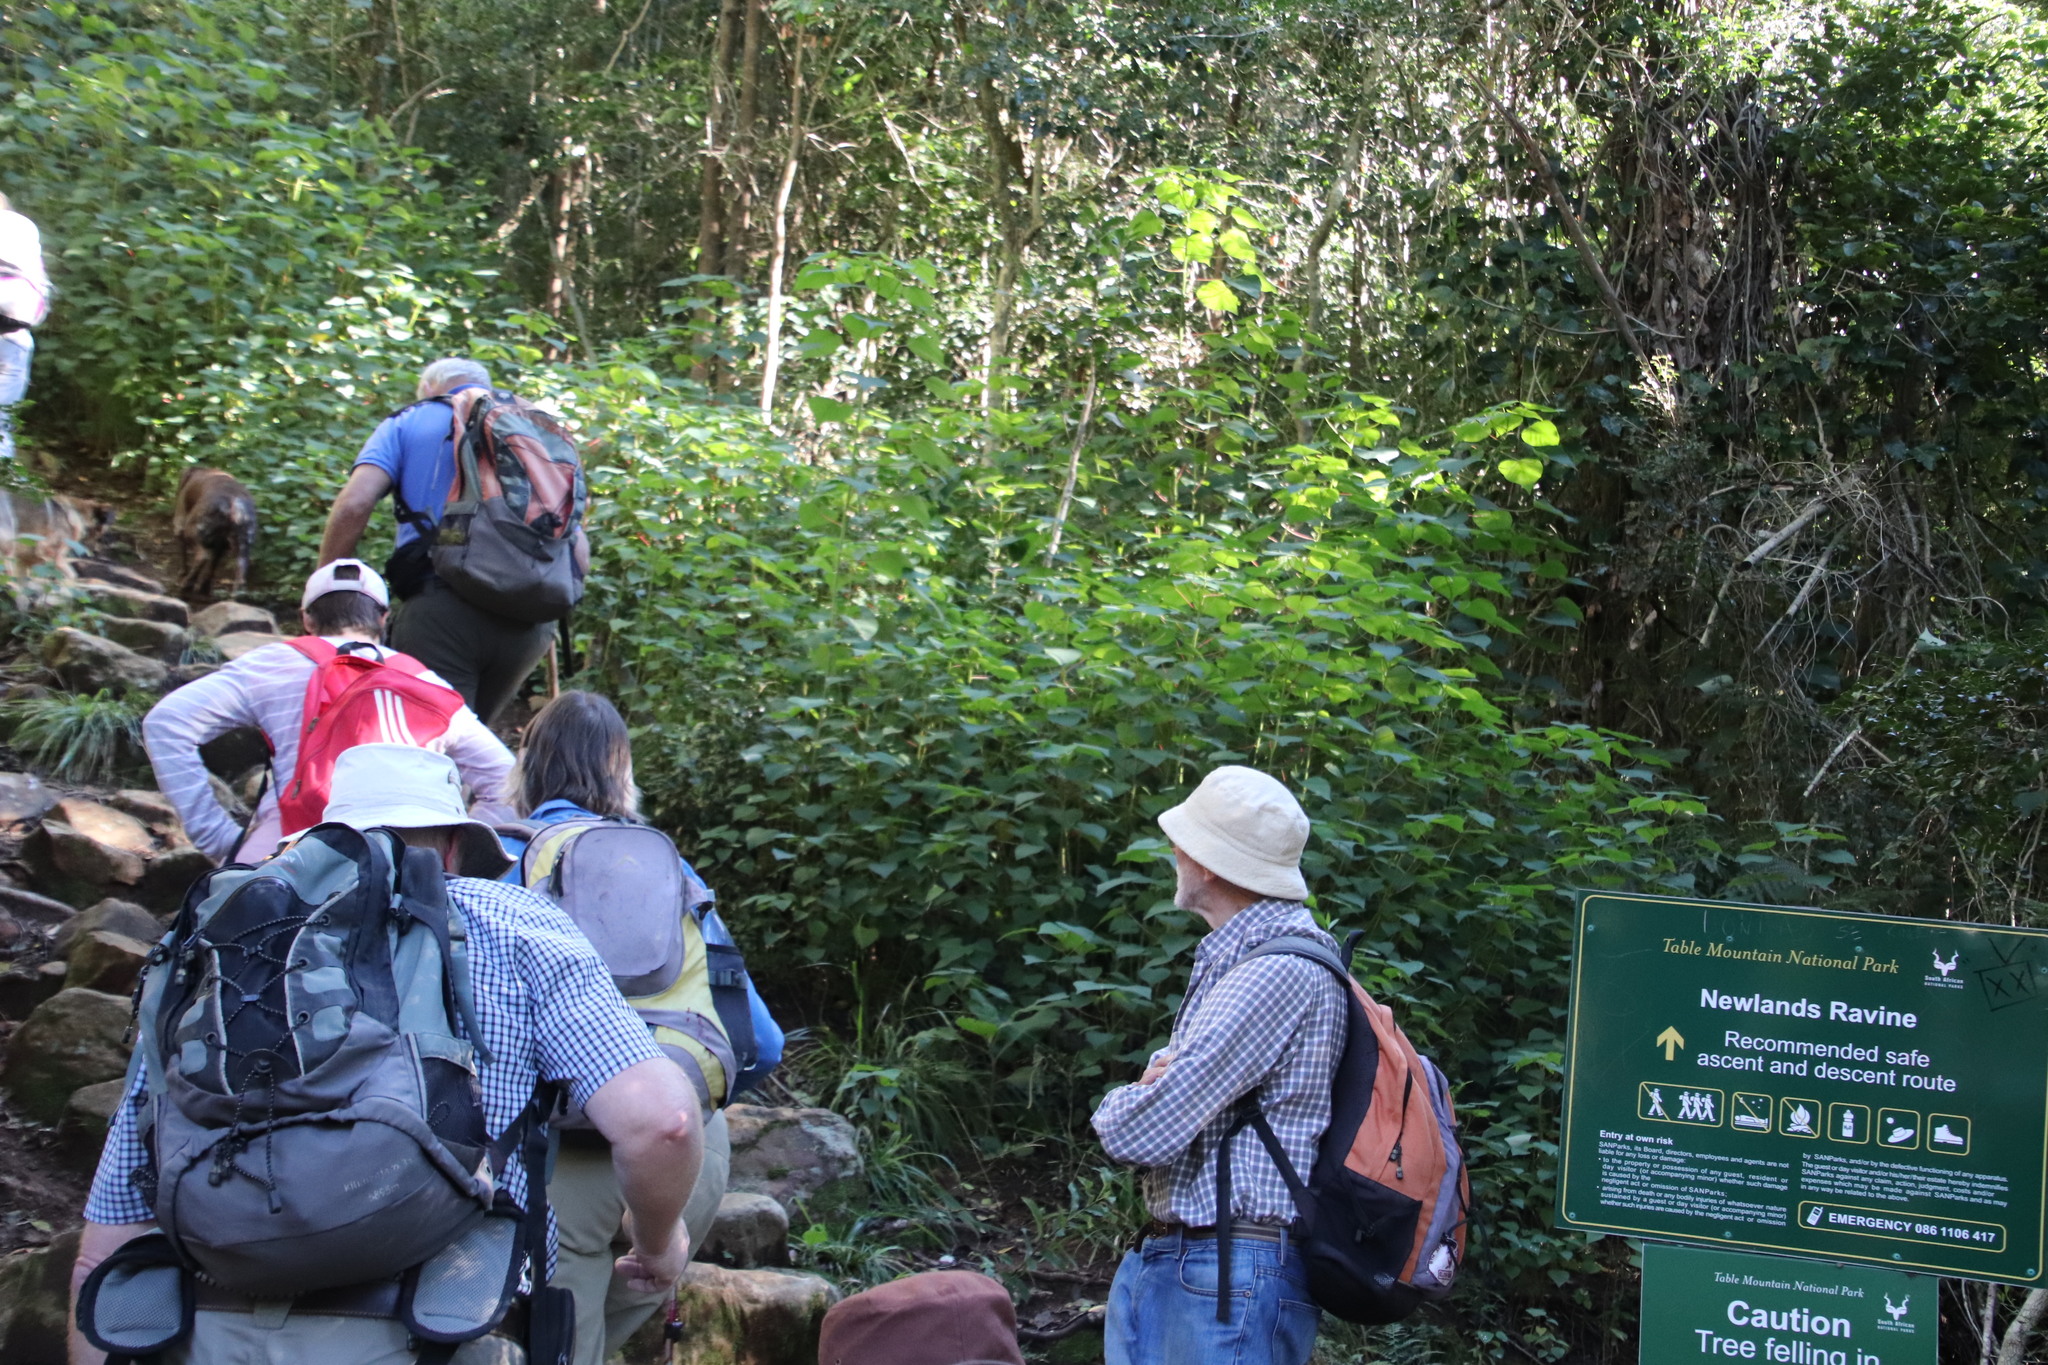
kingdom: Plantae
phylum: Tracheophyta
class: Magnoliopsida
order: Malpighiales
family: Euphorbiaceae
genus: Homalanthus
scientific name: Homalanthus populifolius
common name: Queensland poplar
